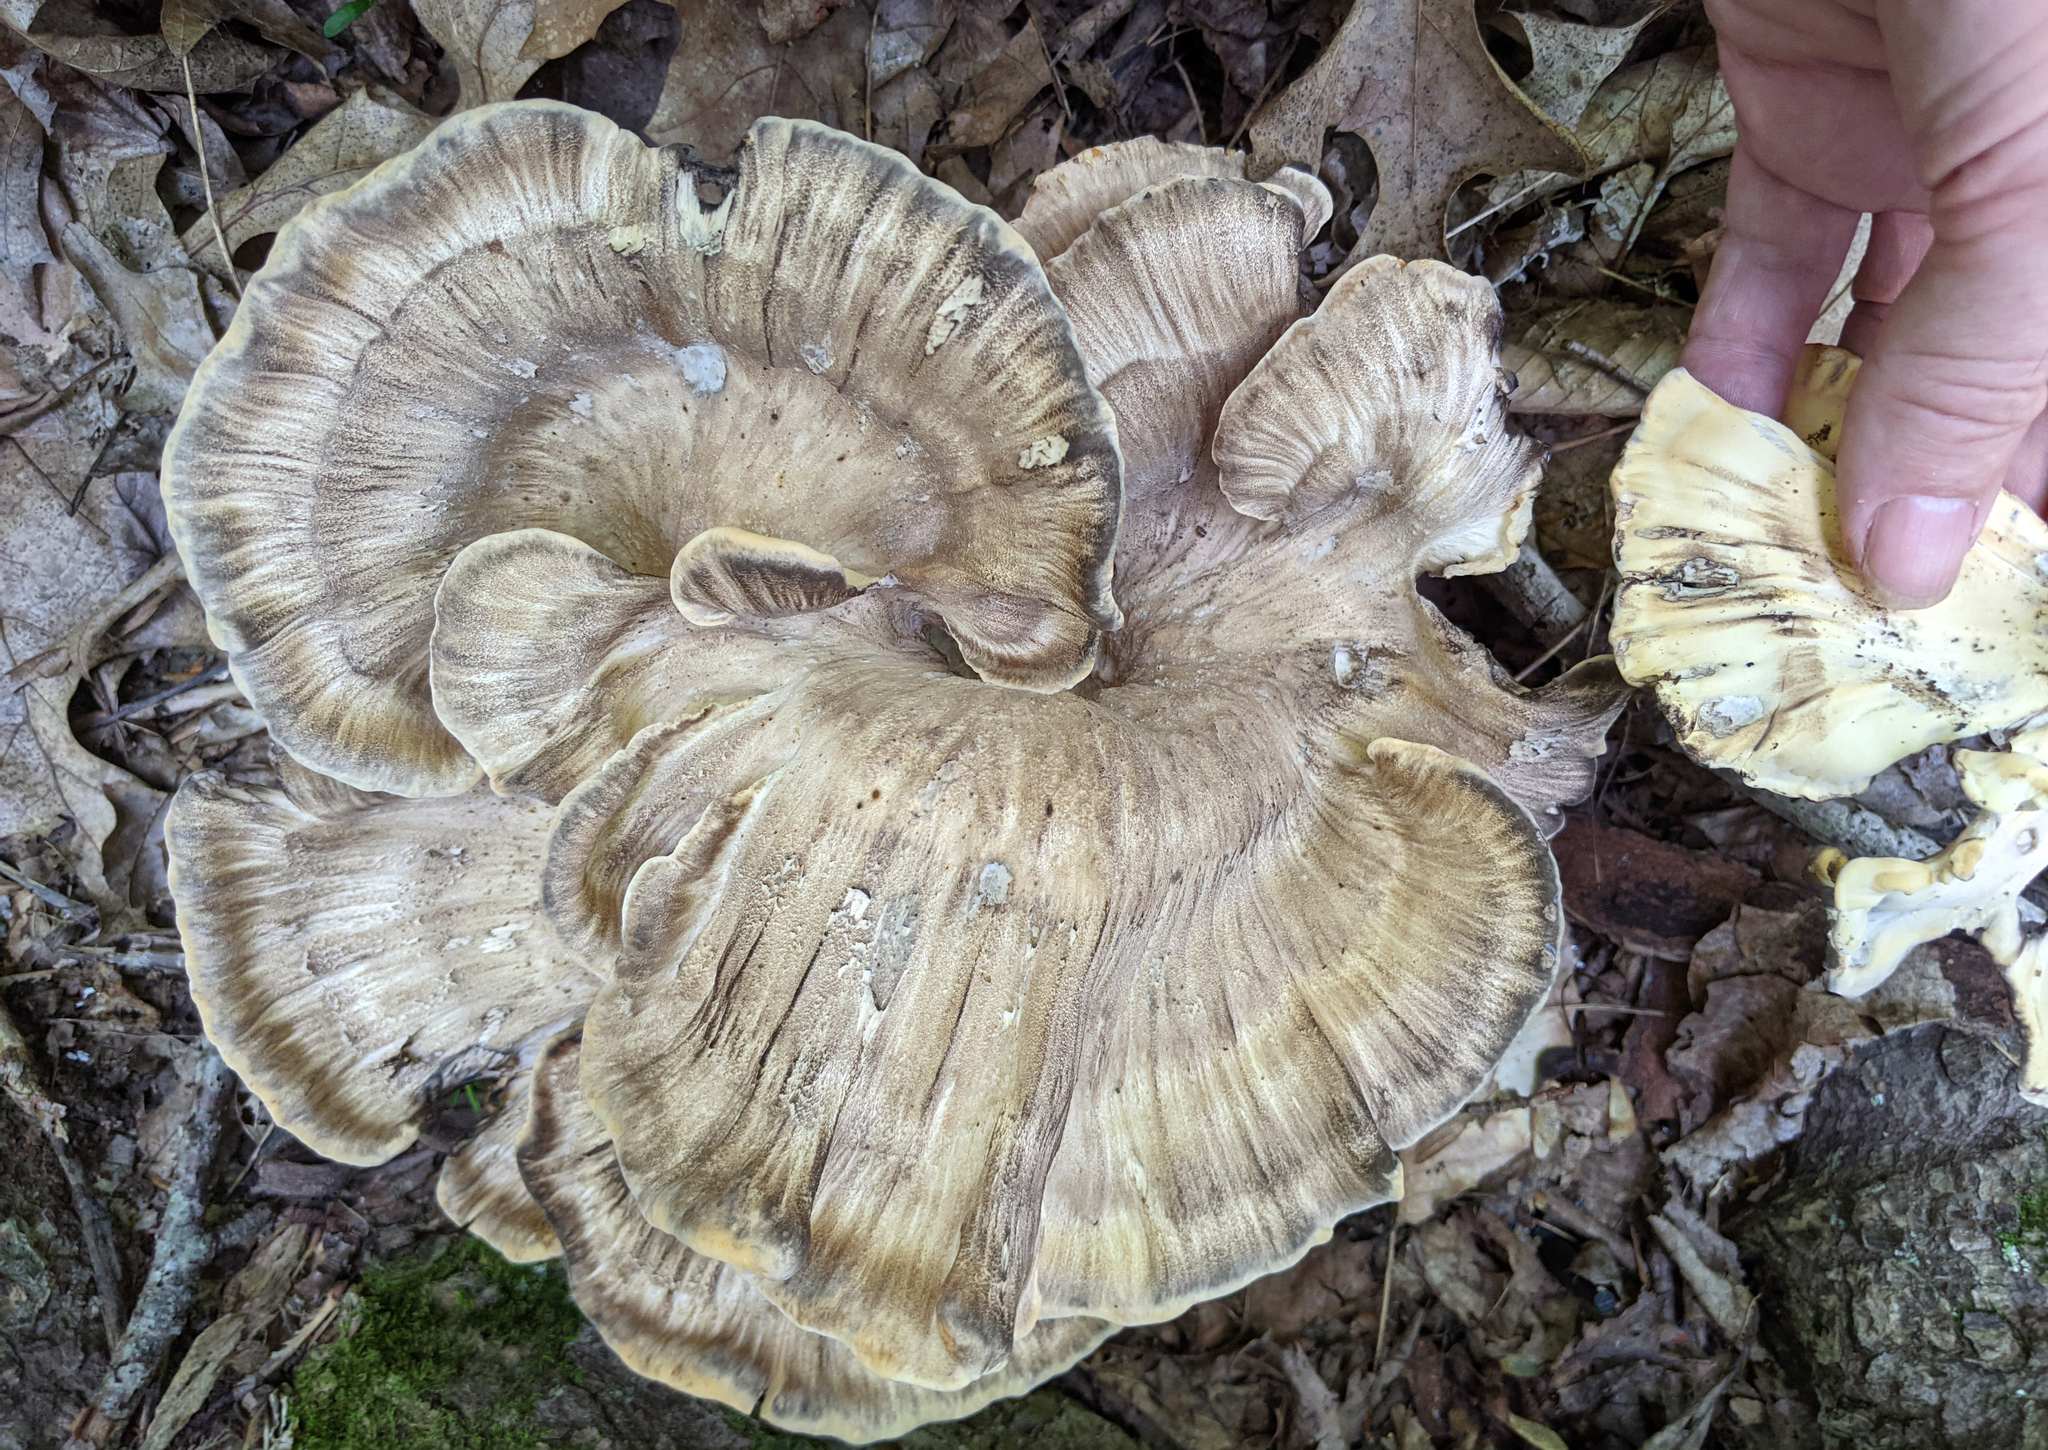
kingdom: Fungi
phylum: Basidiomycota
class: Agaricomycetes
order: Polyporales
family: Meripilaceae
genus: Meripilus
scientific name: Meripilus sumstinei
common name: Black-staining polypore
